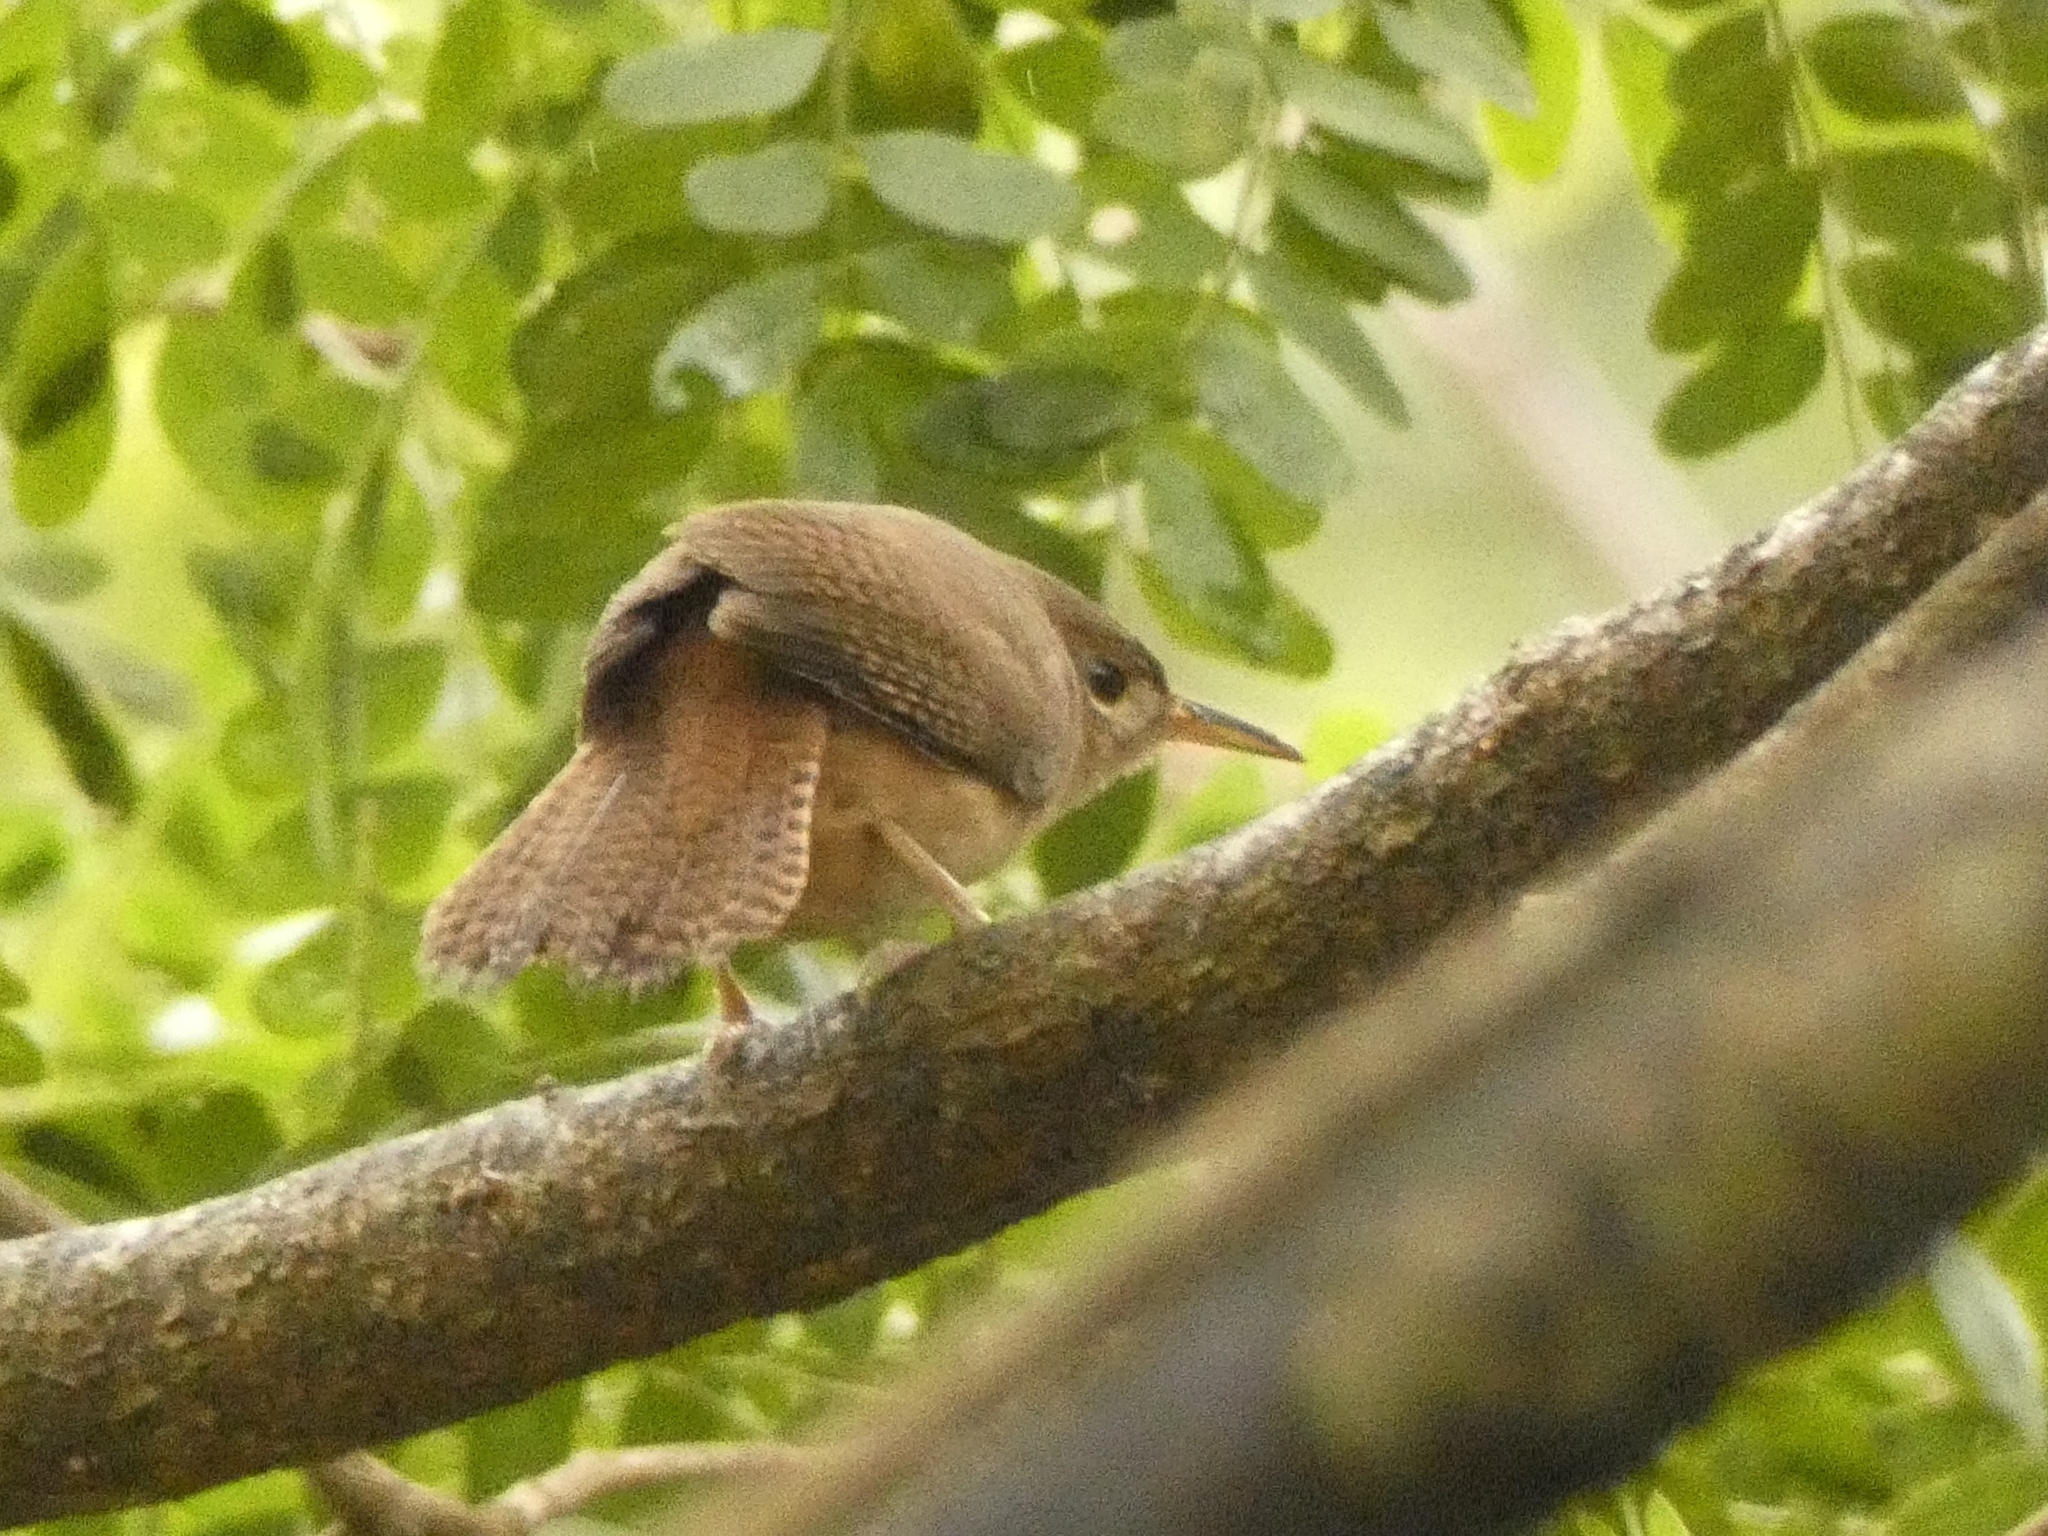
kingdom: Animalia
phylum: Chordata
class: Aves
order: Passeriformes
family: Troglodytidae
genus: Troglodytes
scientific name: Troglodytes aedon
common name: House wren
